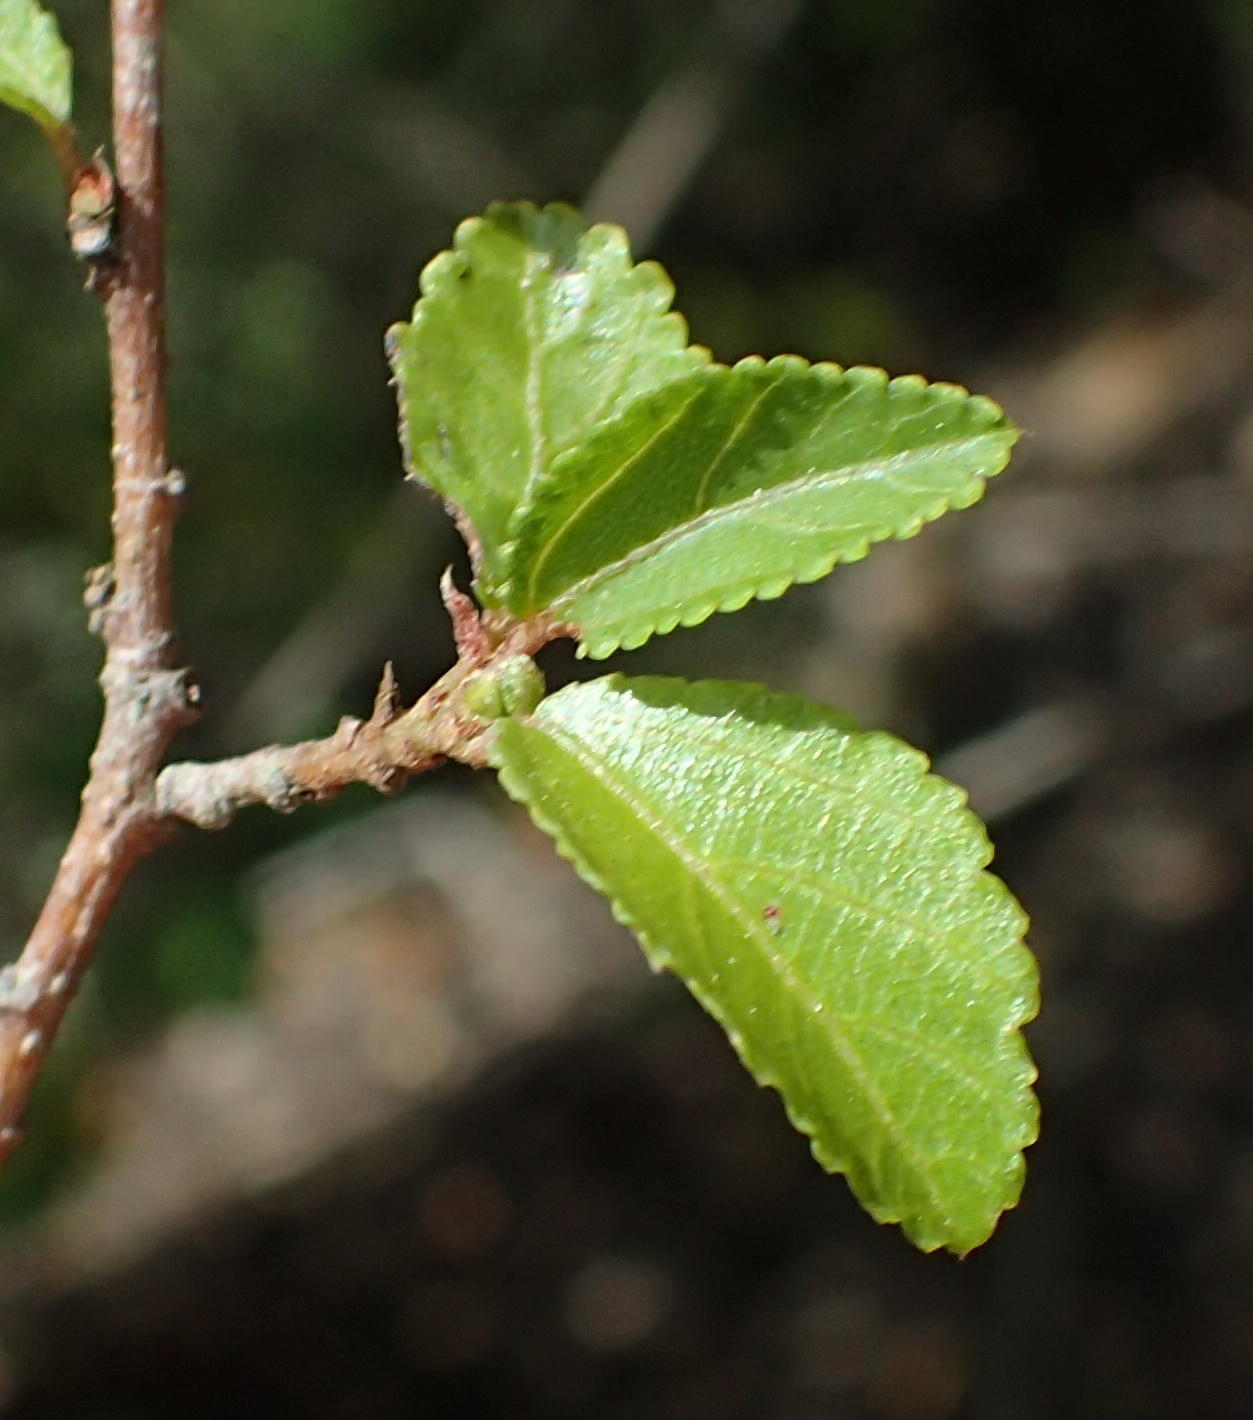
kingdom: Plantae
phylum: Tracheophyta
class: Magnoliopsida
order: Malvales
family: Malvaceae
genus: Grewia
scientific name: Grewia occidentalis
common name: Crossberry
